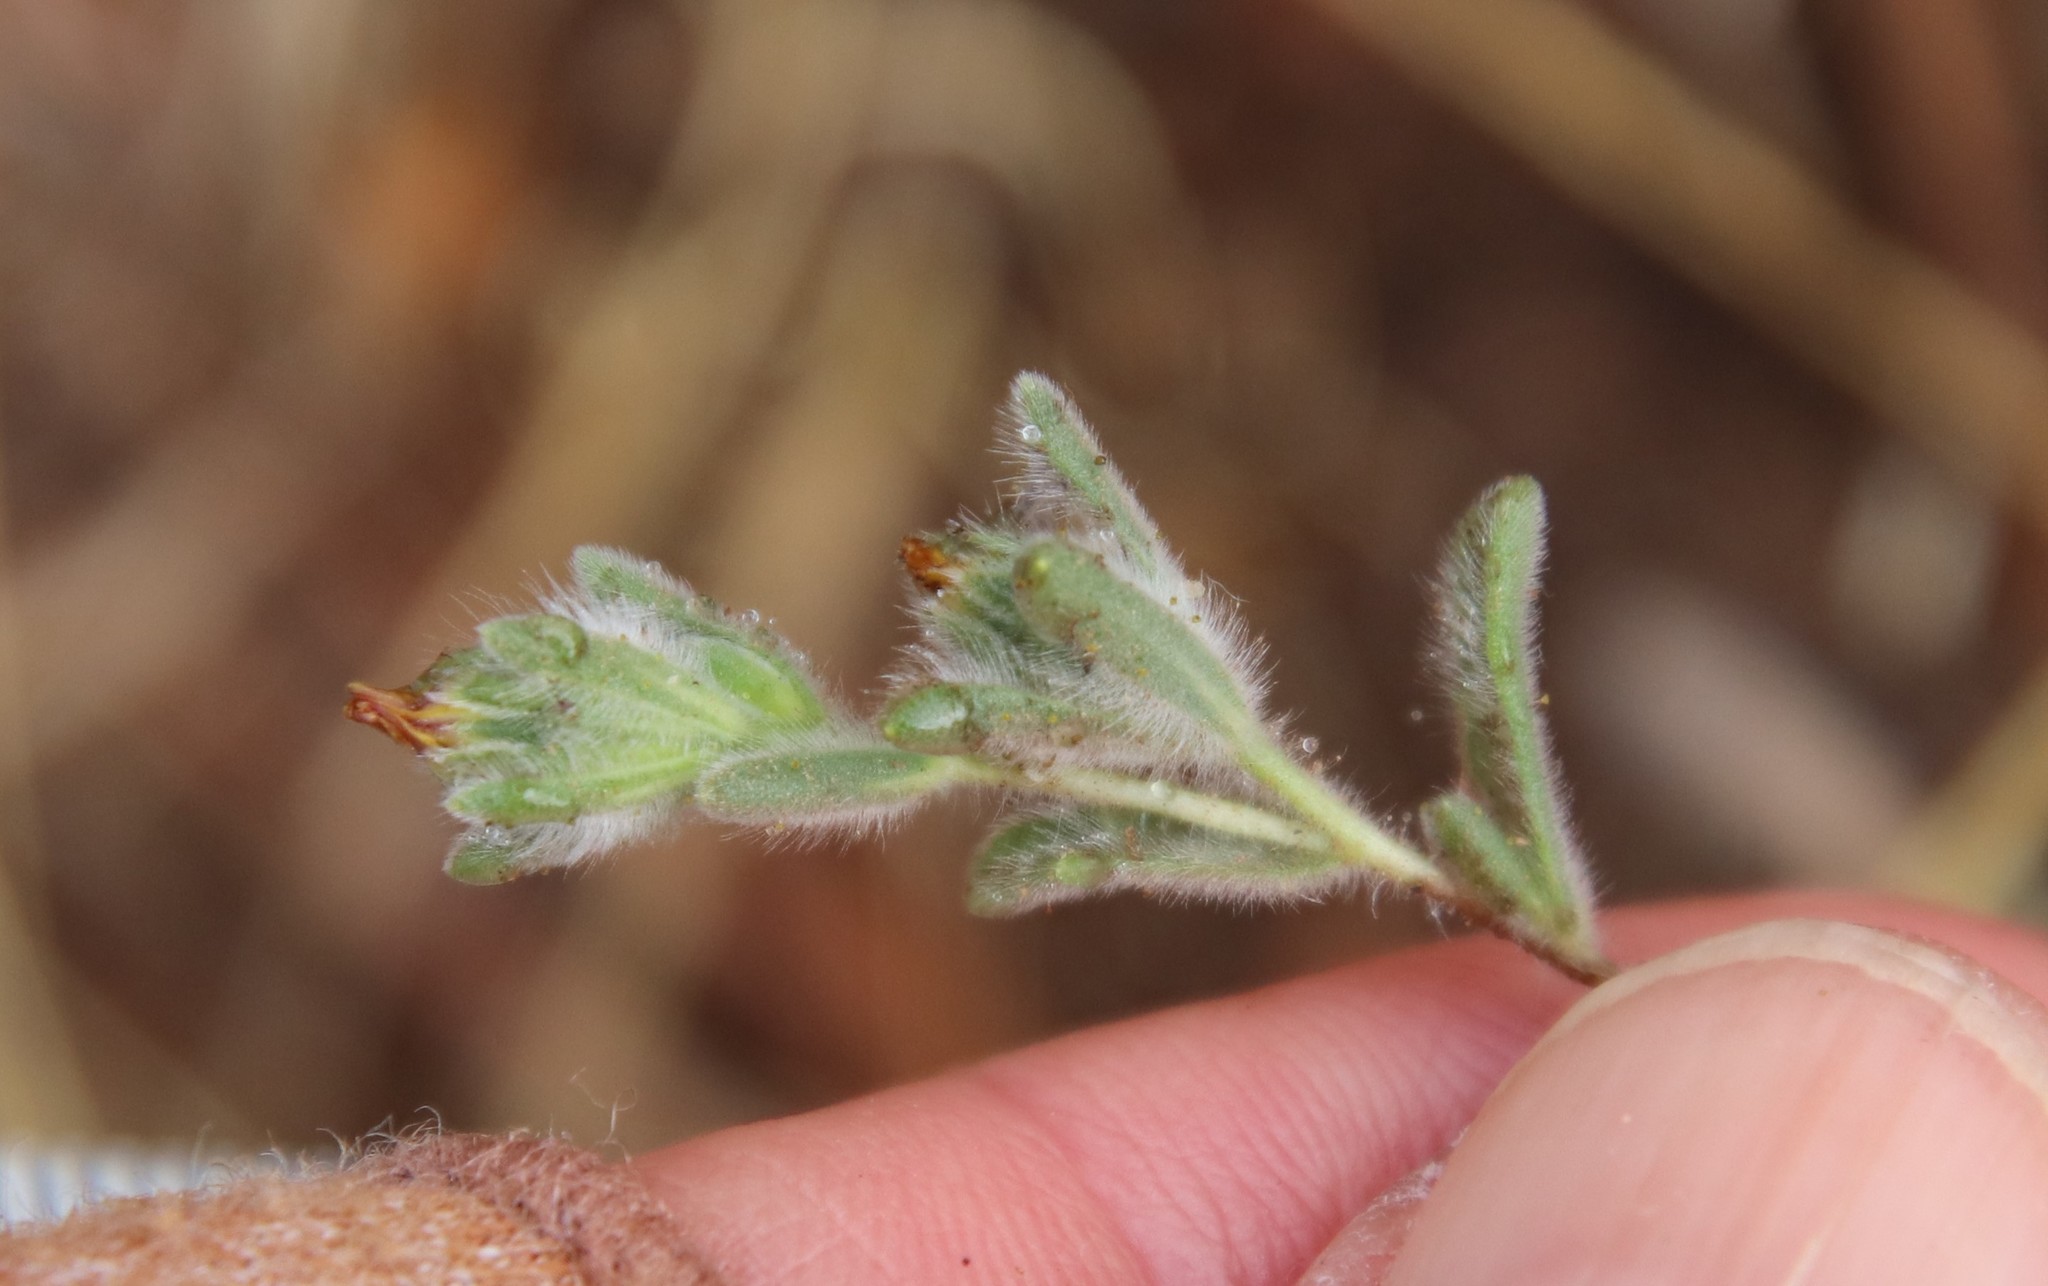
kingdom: Plantae
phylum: Tracheophyta
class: Magnoliopsida
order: Asterales
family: Asteraceae
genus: Lagophylla
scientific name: Lagophylla ramosissima
